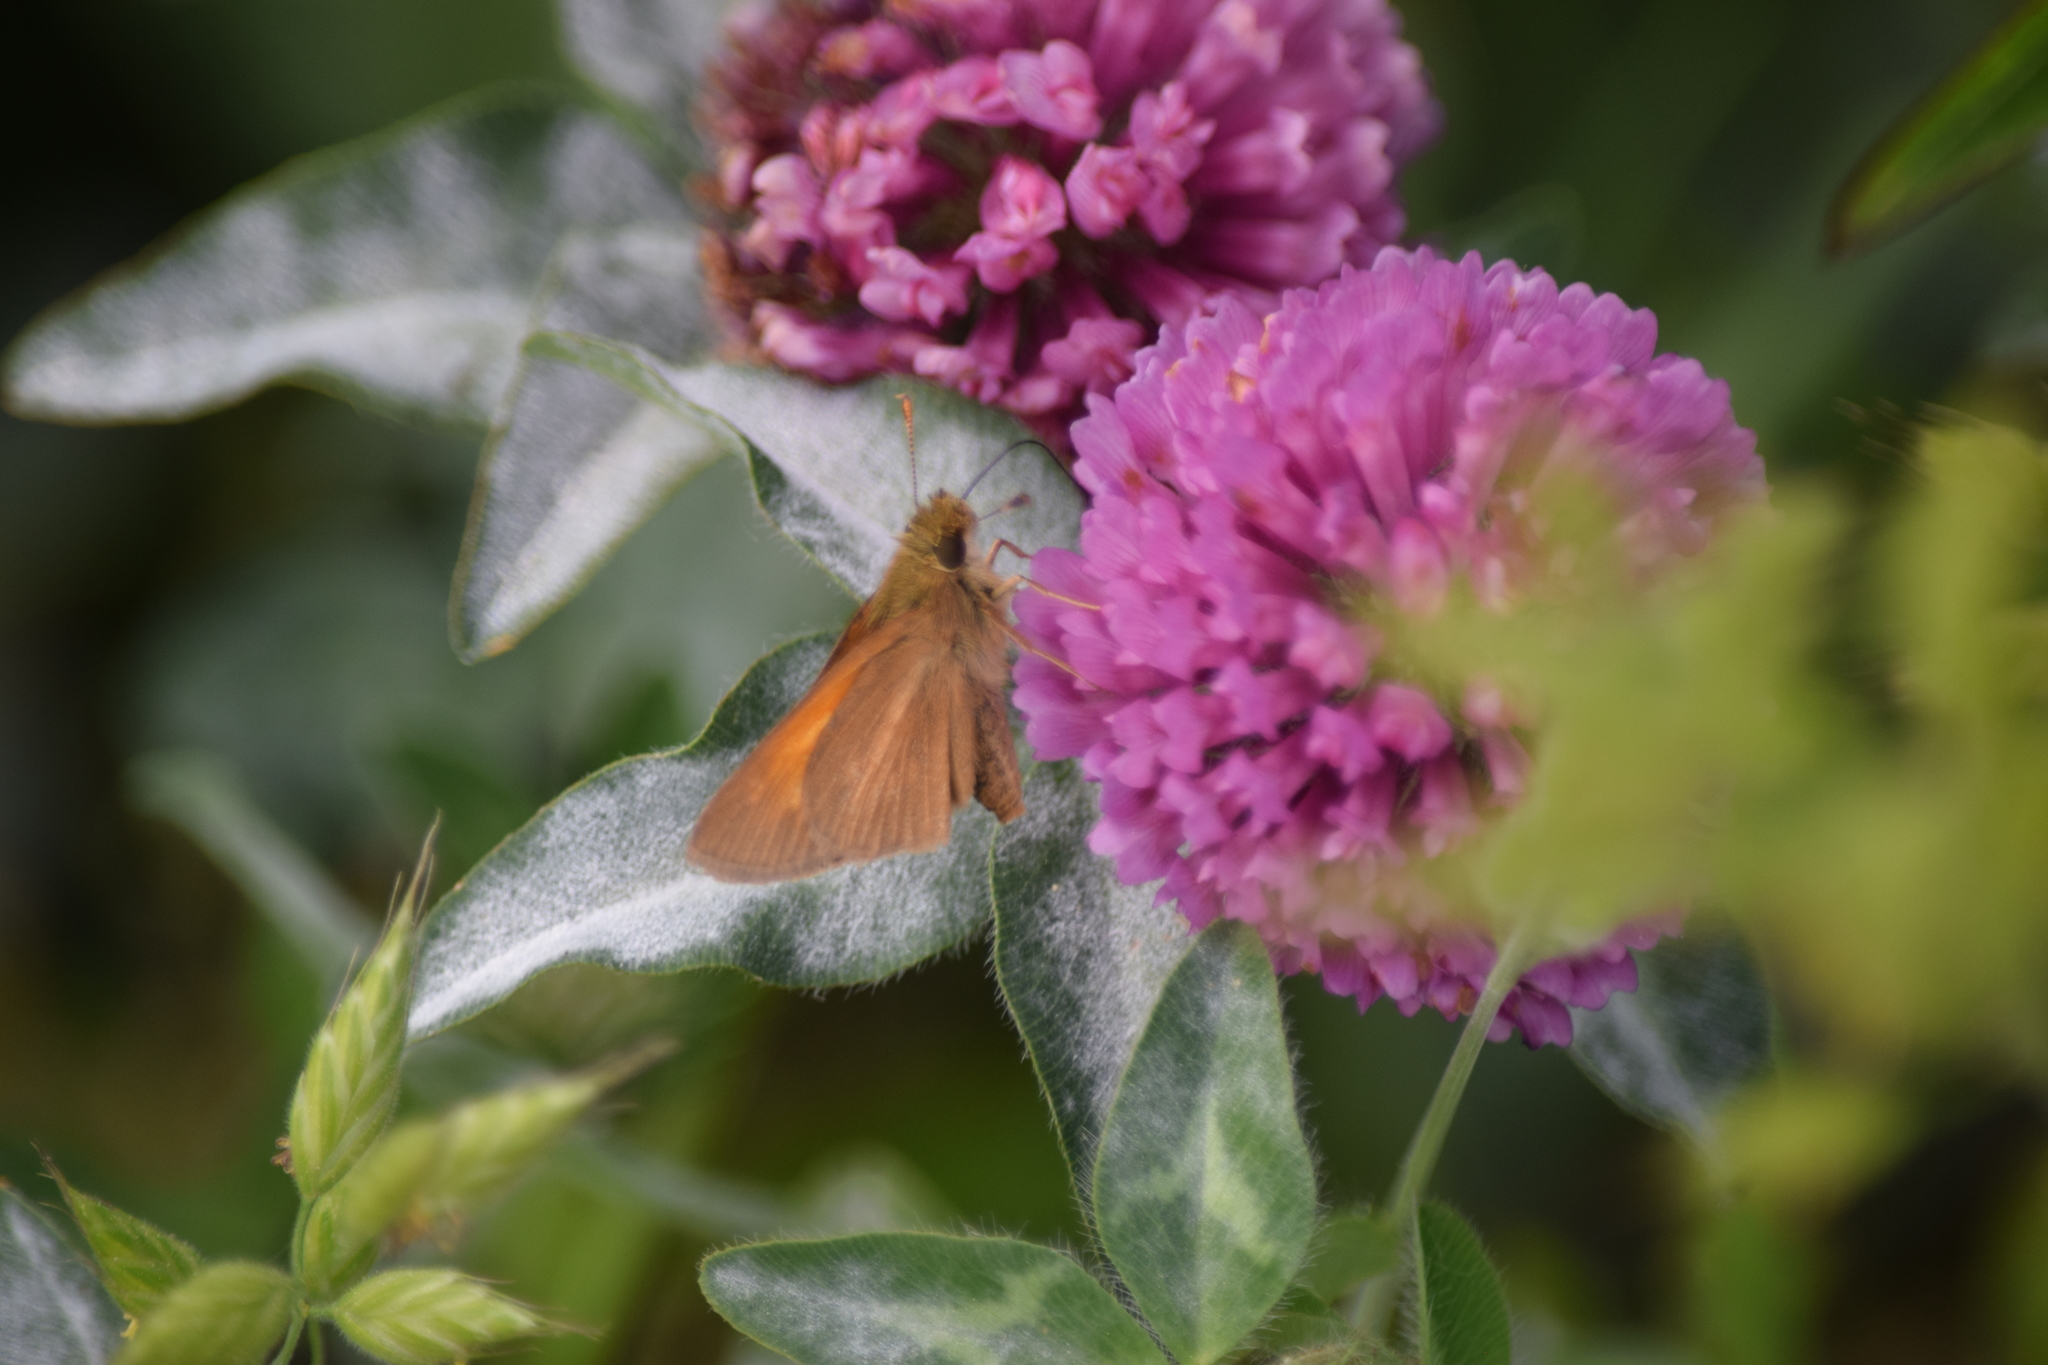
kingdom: Animalia
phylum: Arthropoda
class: Insecta
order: Lepidoptera
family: Hesperiidae
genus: Poanes
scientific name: Poanes aaroni
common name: Aaron's skipper
